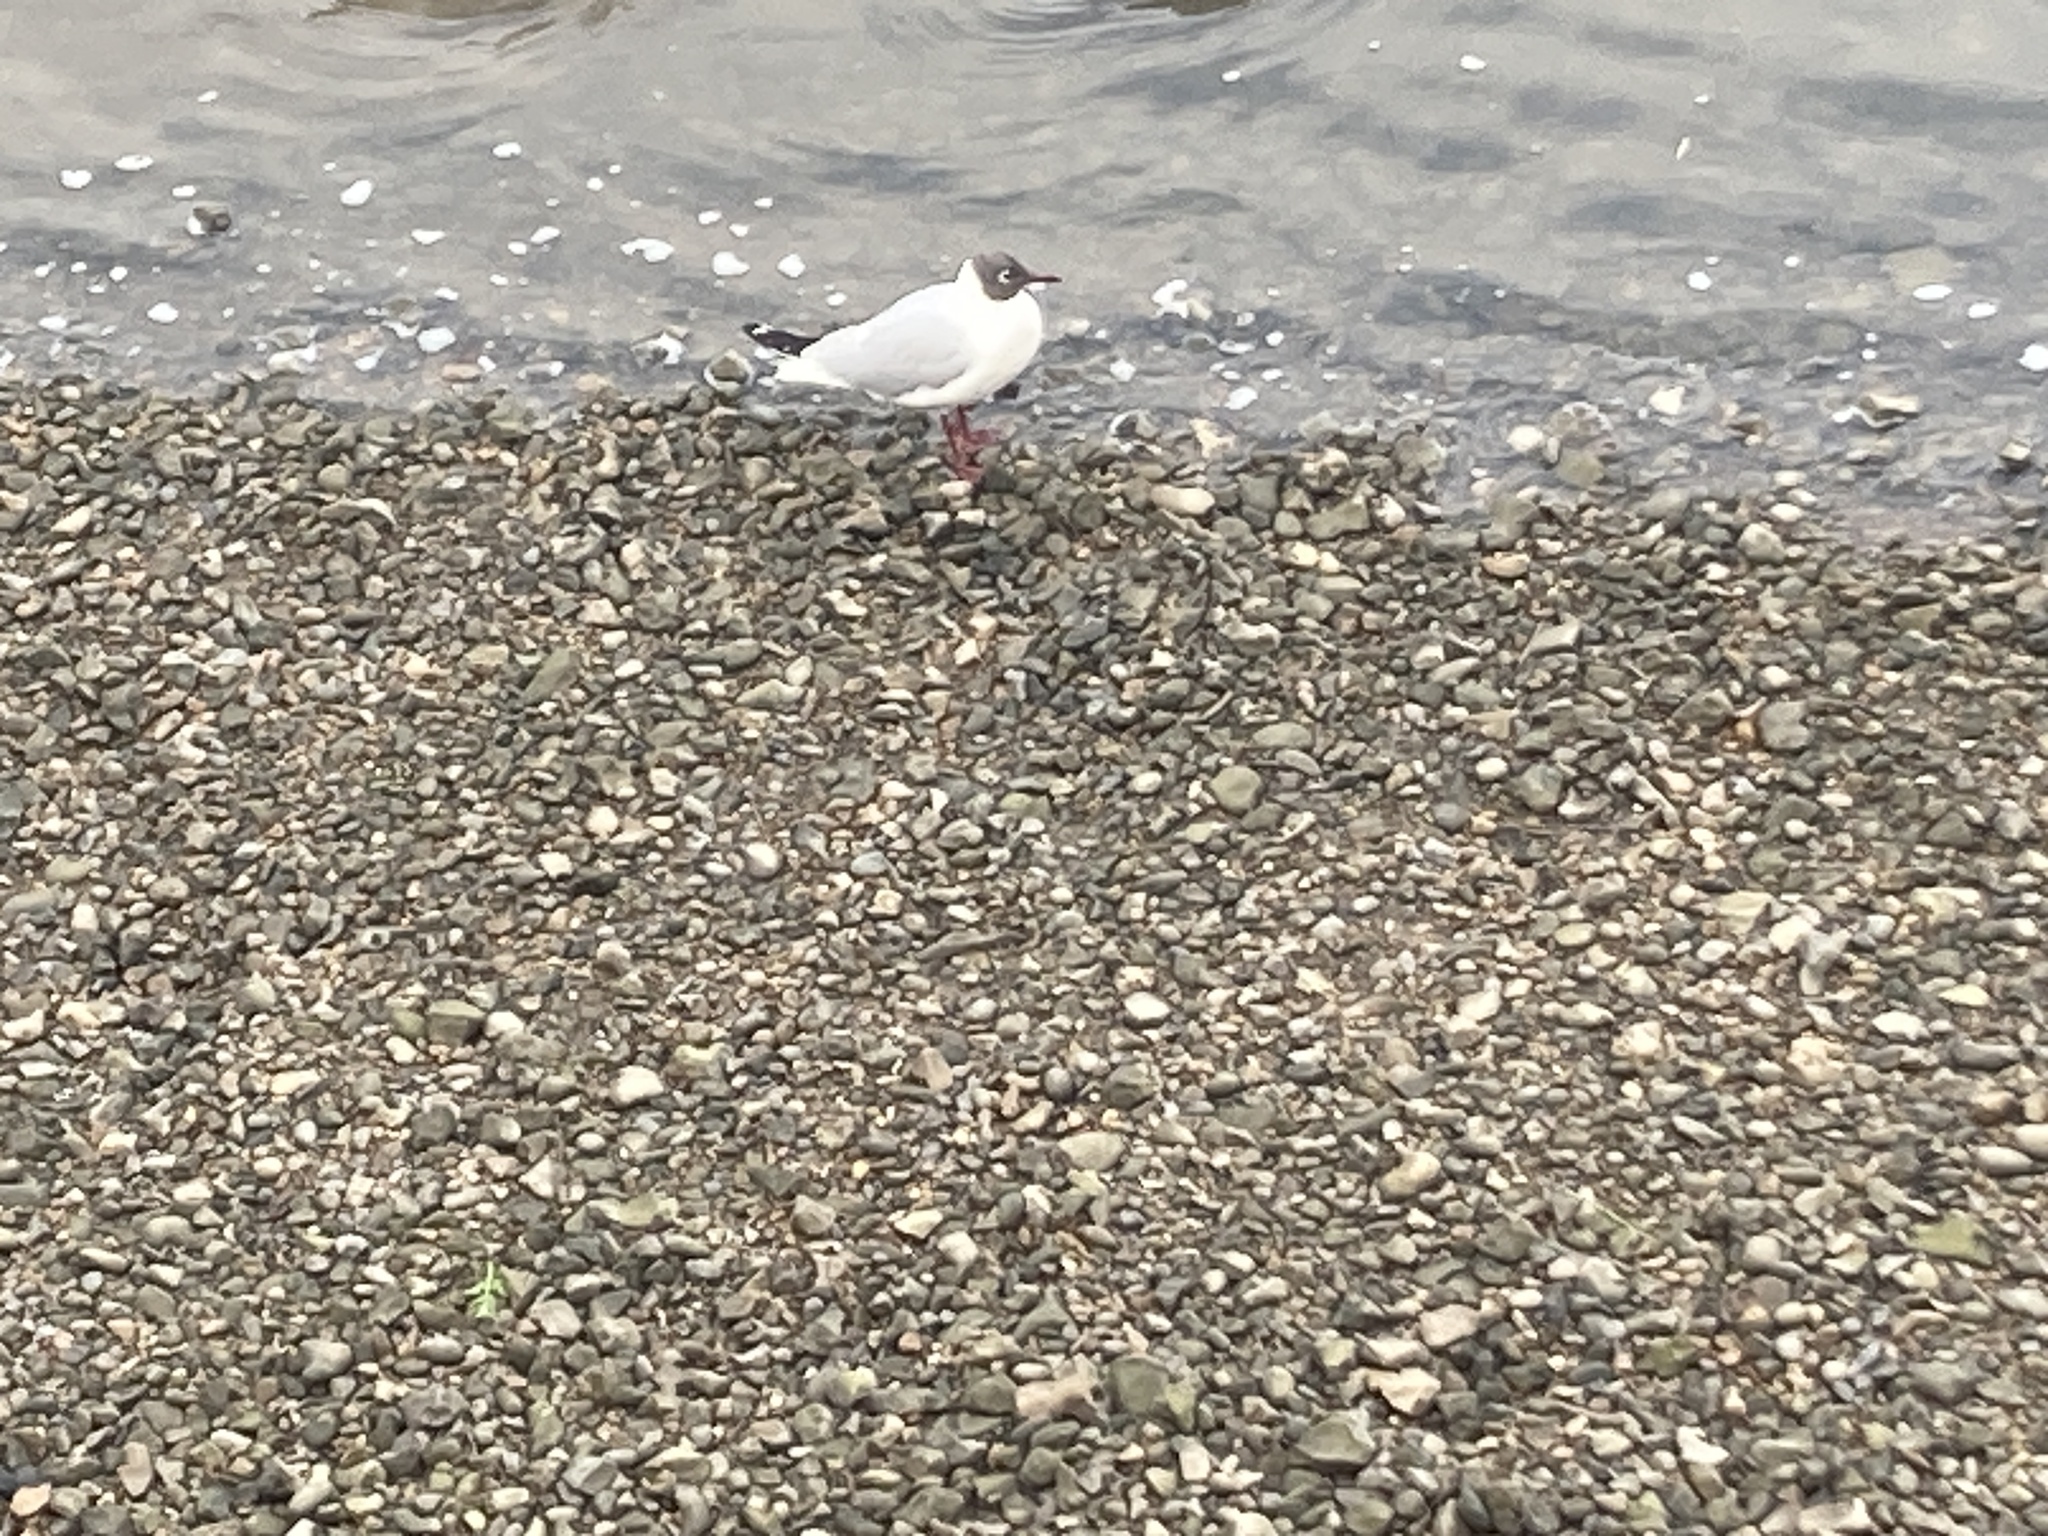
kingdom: Animalia
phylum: Chordata
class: Aves
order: Charadriiformes
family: Laridae
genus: Chroicocephalus
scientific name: Chroicocephalus ridibundus
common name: Black-headed gull
